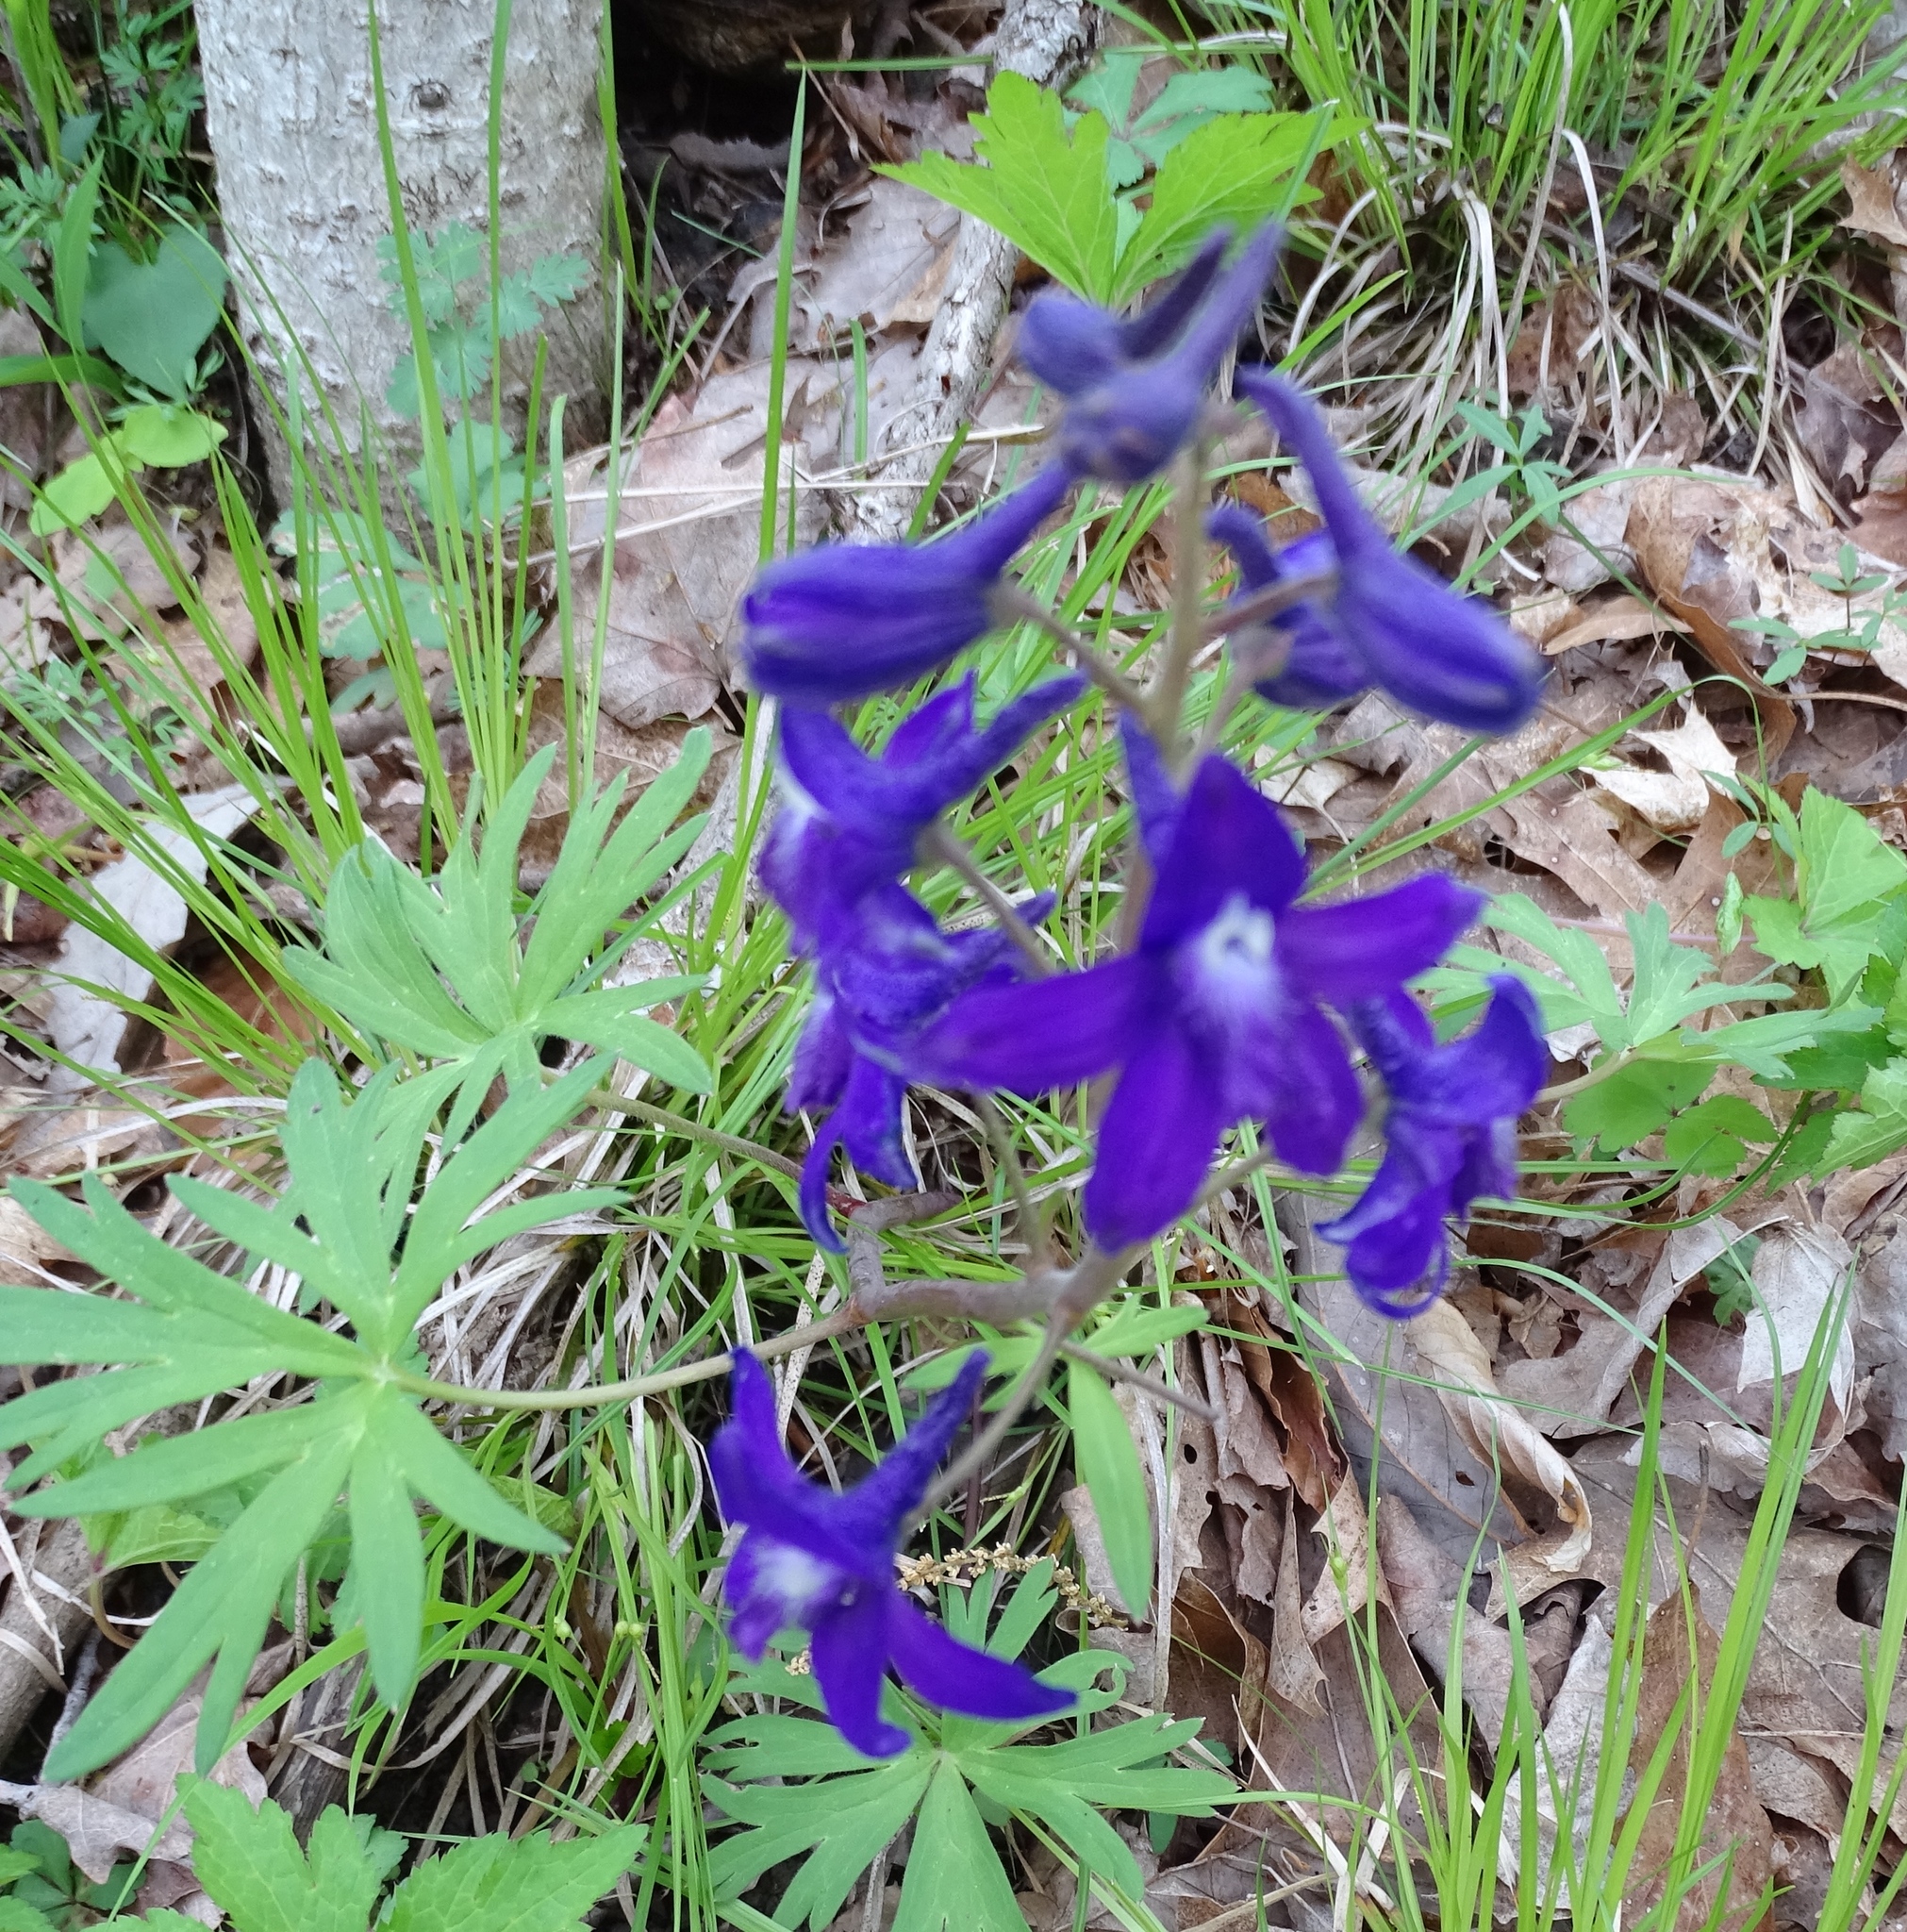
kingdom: Plantae
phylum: Tracheophyta
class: Magnoliopsida
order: Ranunculales
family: Ranunculaceae
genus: Delphinium
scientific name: Delphinium tricorne
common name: Dwarf larkspur
